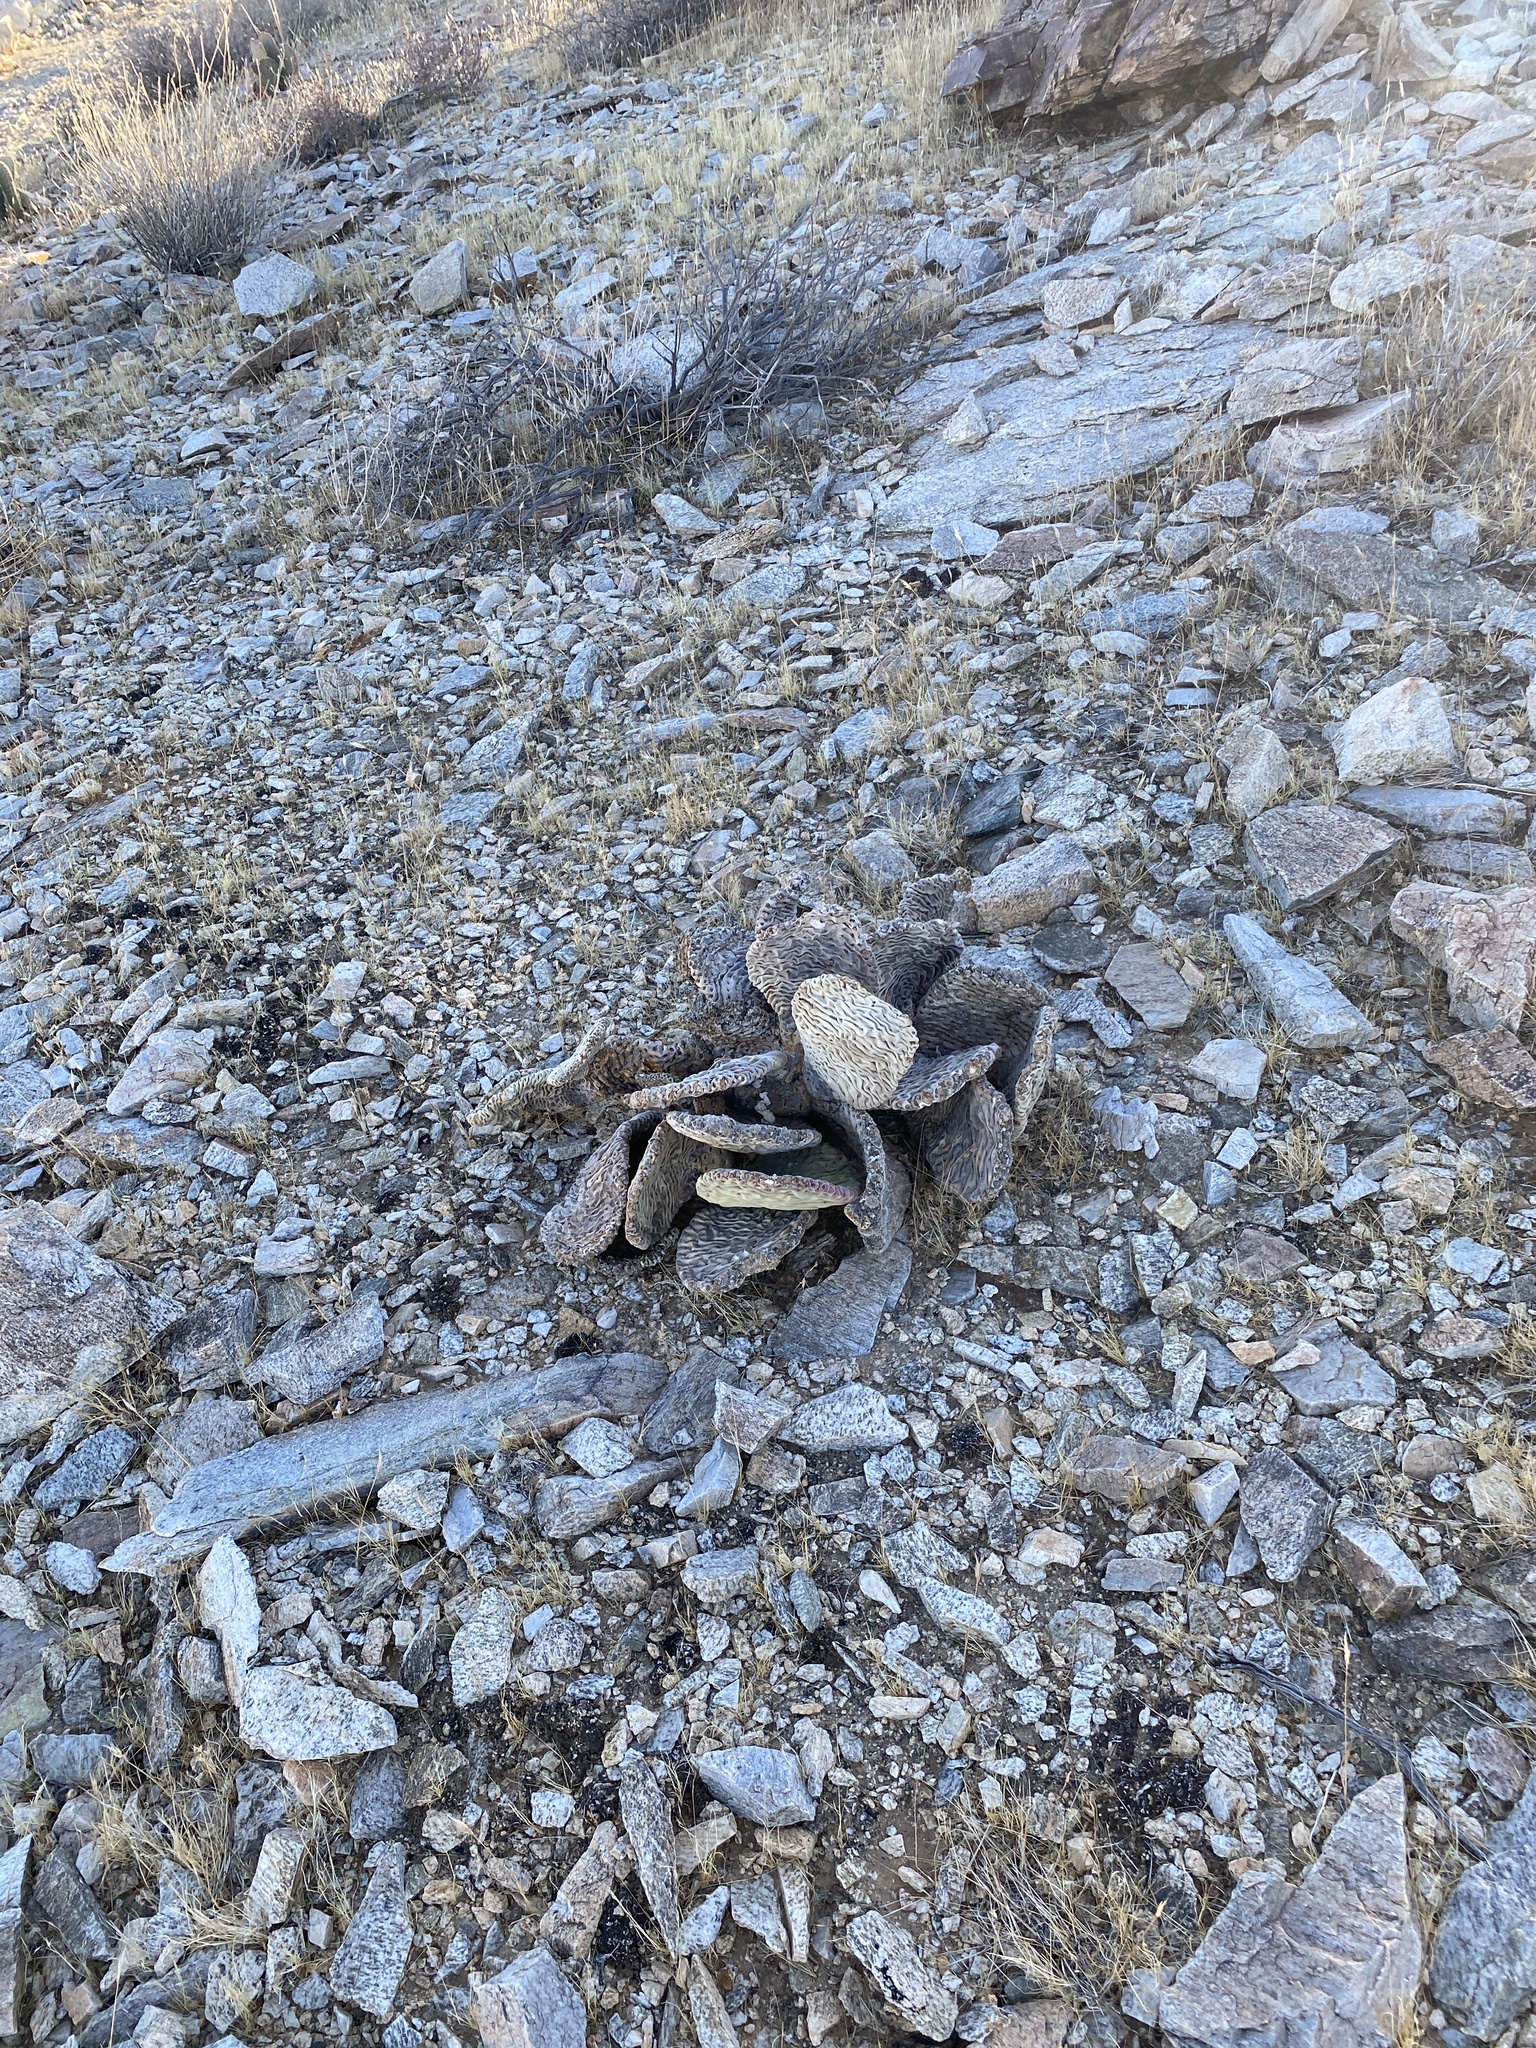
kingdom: Plantae
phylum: Tracheophyta
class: Magnoliopsida
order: Caryophyllales
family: Cactaceae
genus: Opuntia
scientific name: Opuntia basilaris
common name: Beavertail prickly-pear
